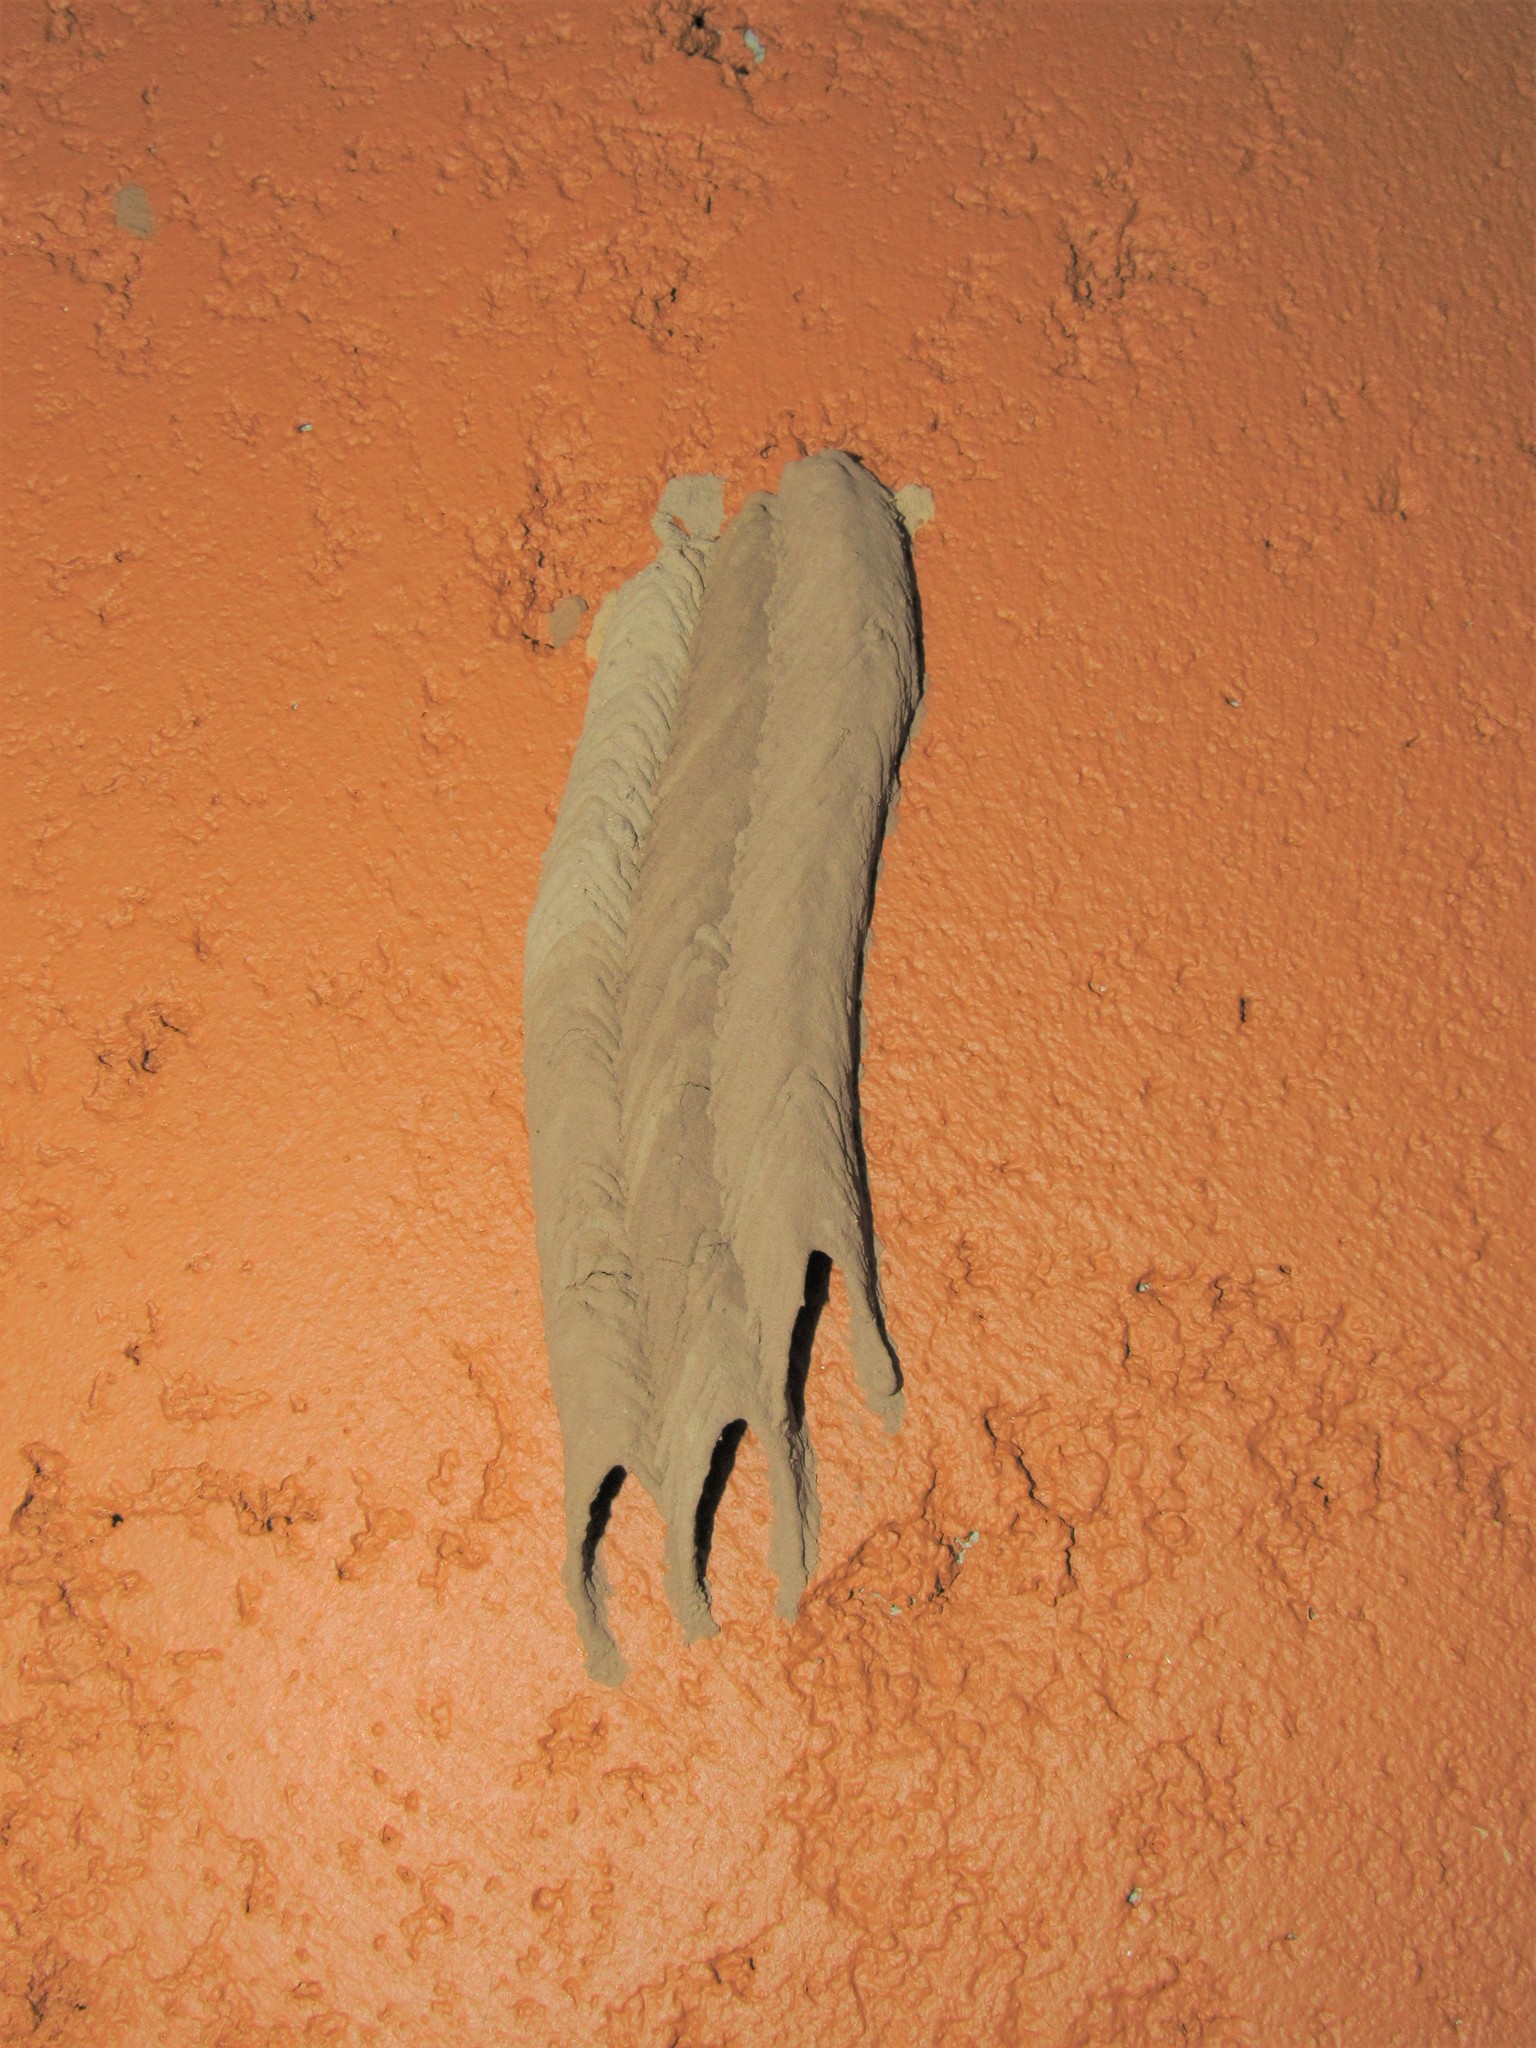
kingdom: Animalia
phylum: Arthropoda
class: Insecta
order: Hymenoptera
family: Crabronidae
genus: Trypoxylon
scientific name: Trypoxylon albitarse
